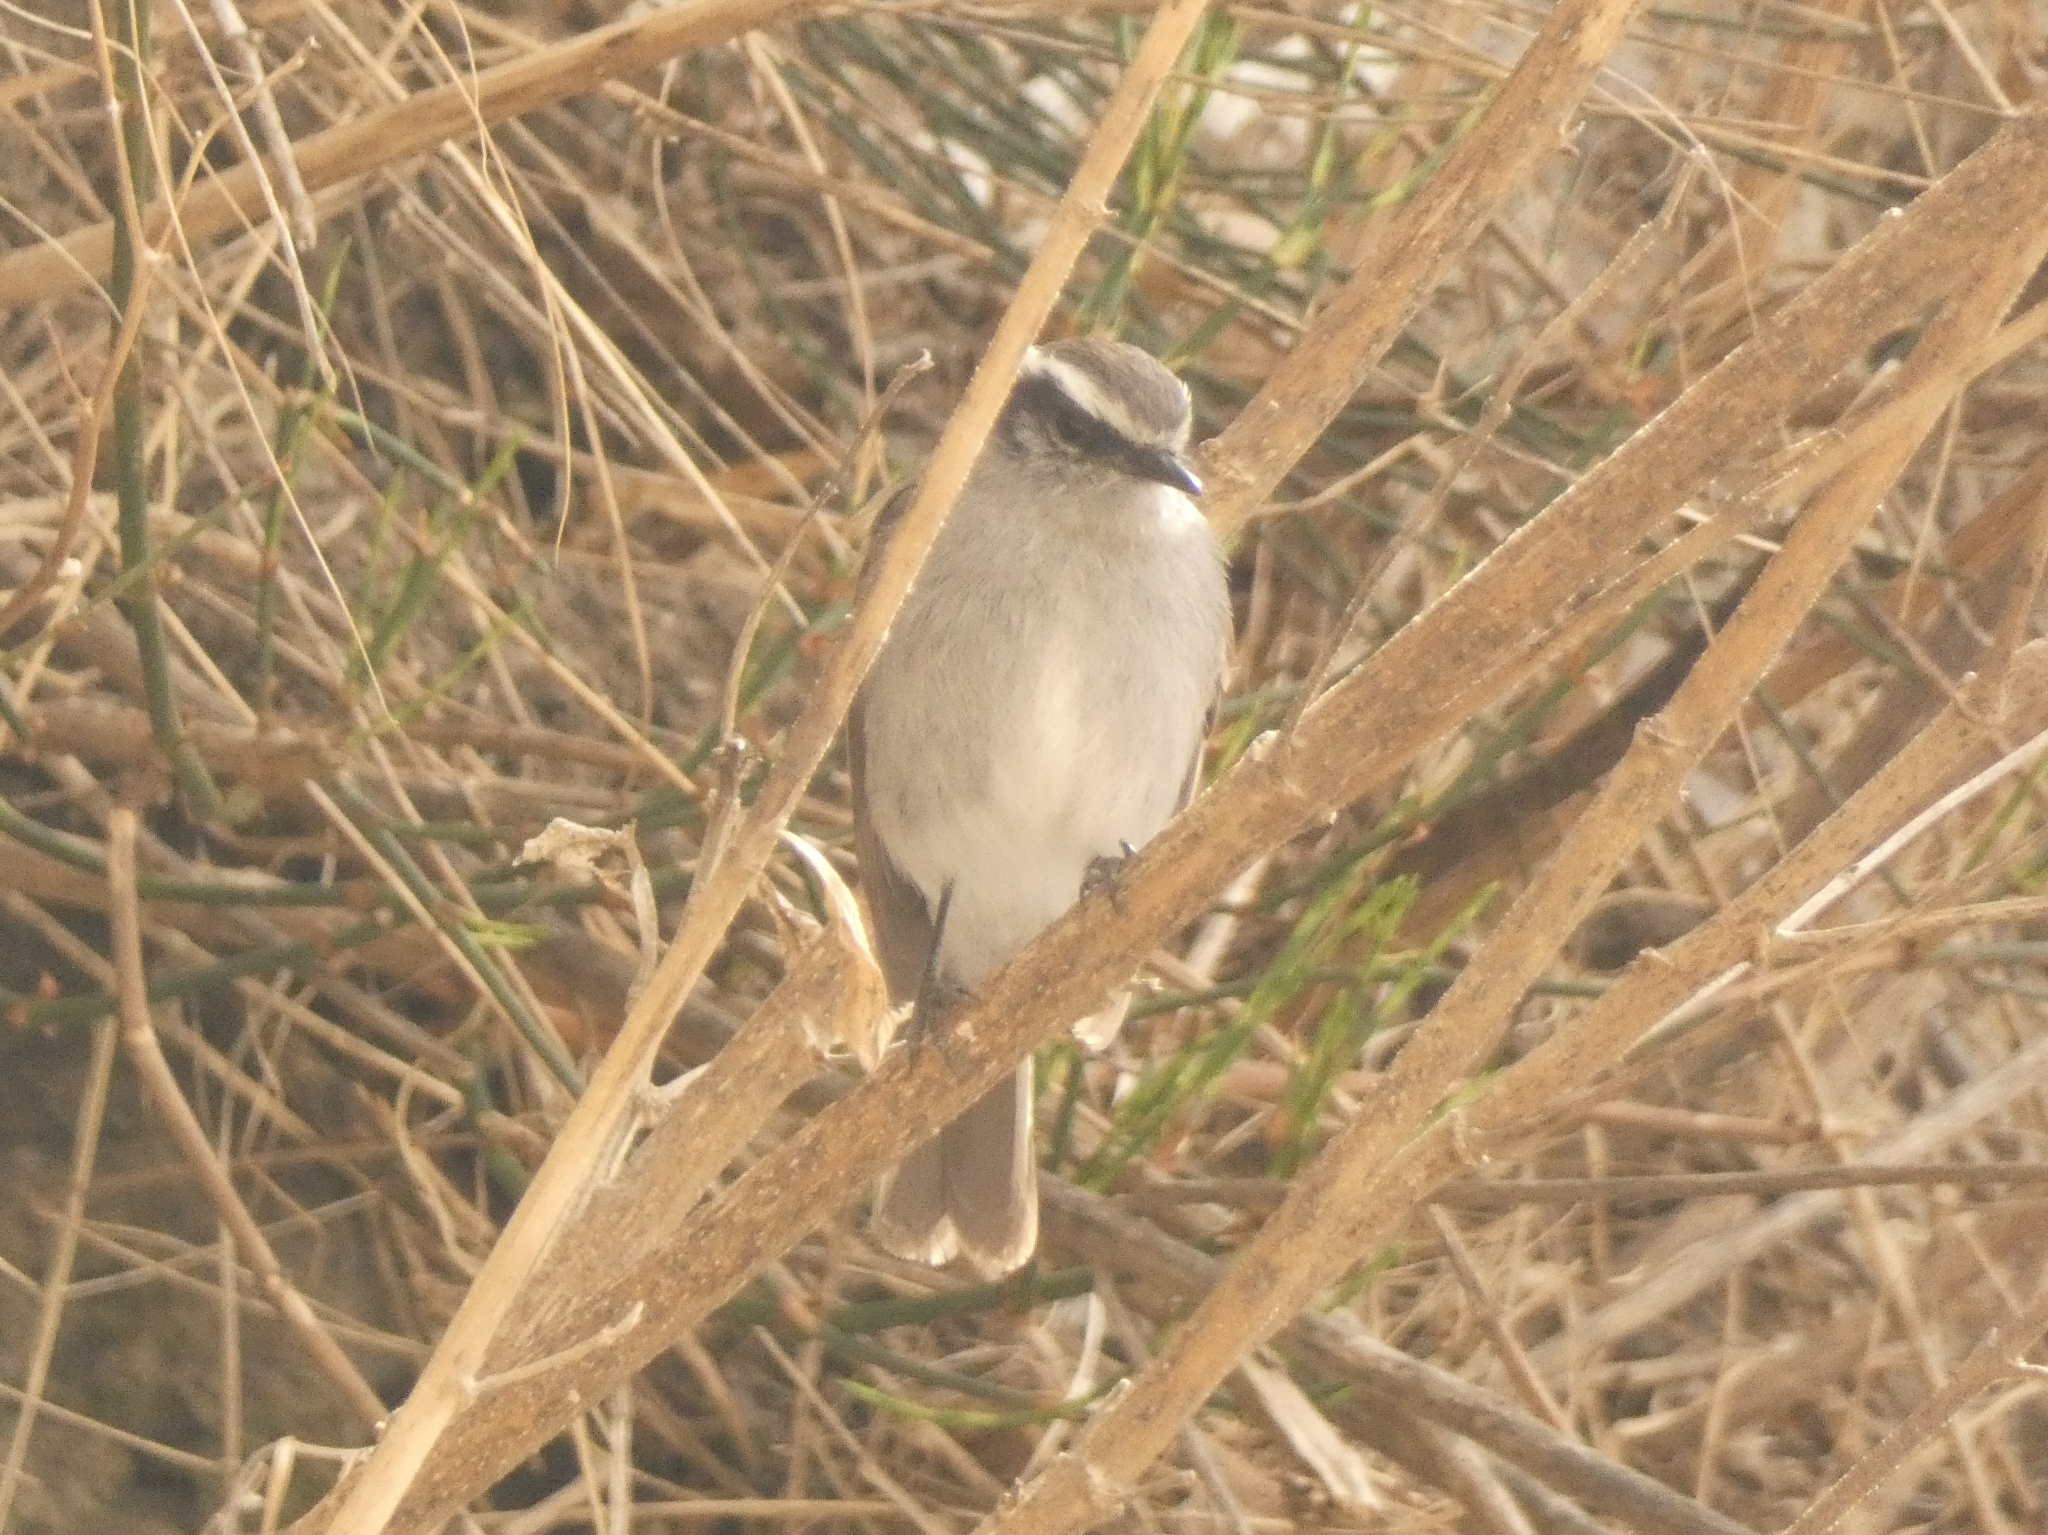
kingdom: Animalia
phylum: Chordata
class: Aves
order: Passeriformes
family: Tyrannidae
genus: Ochthoeca
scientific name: Ochthoeca leucophrys
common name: White-browed chat-tyrant
